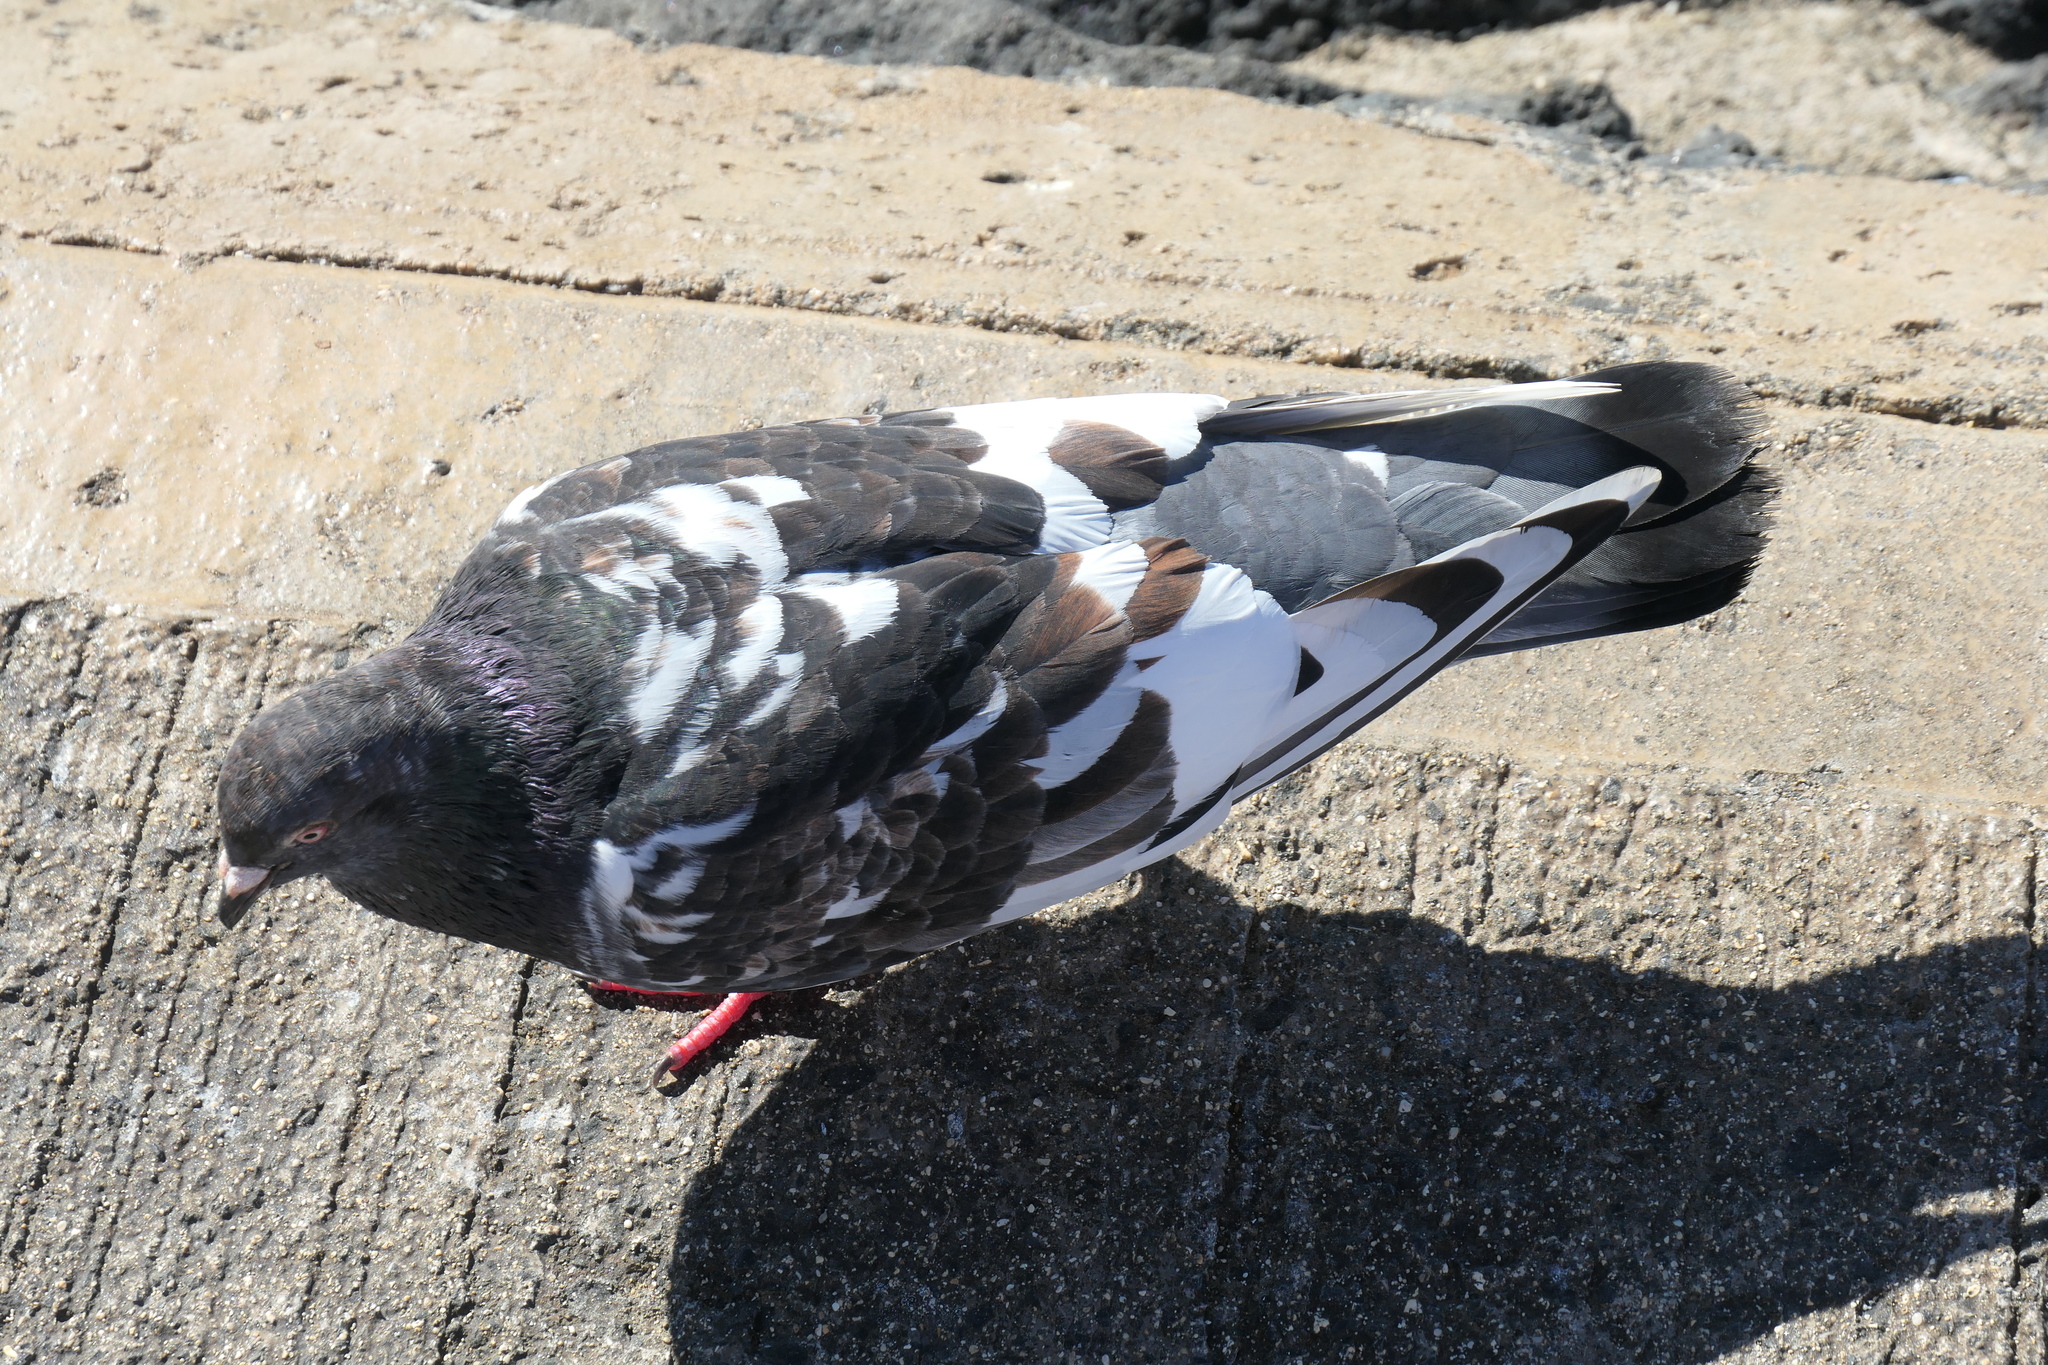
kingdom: Animalia
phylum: Chordata
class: Aves
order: Columbiformes
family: Columbidae
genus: Columba
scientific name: Columba livia
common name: Rock pigeon
